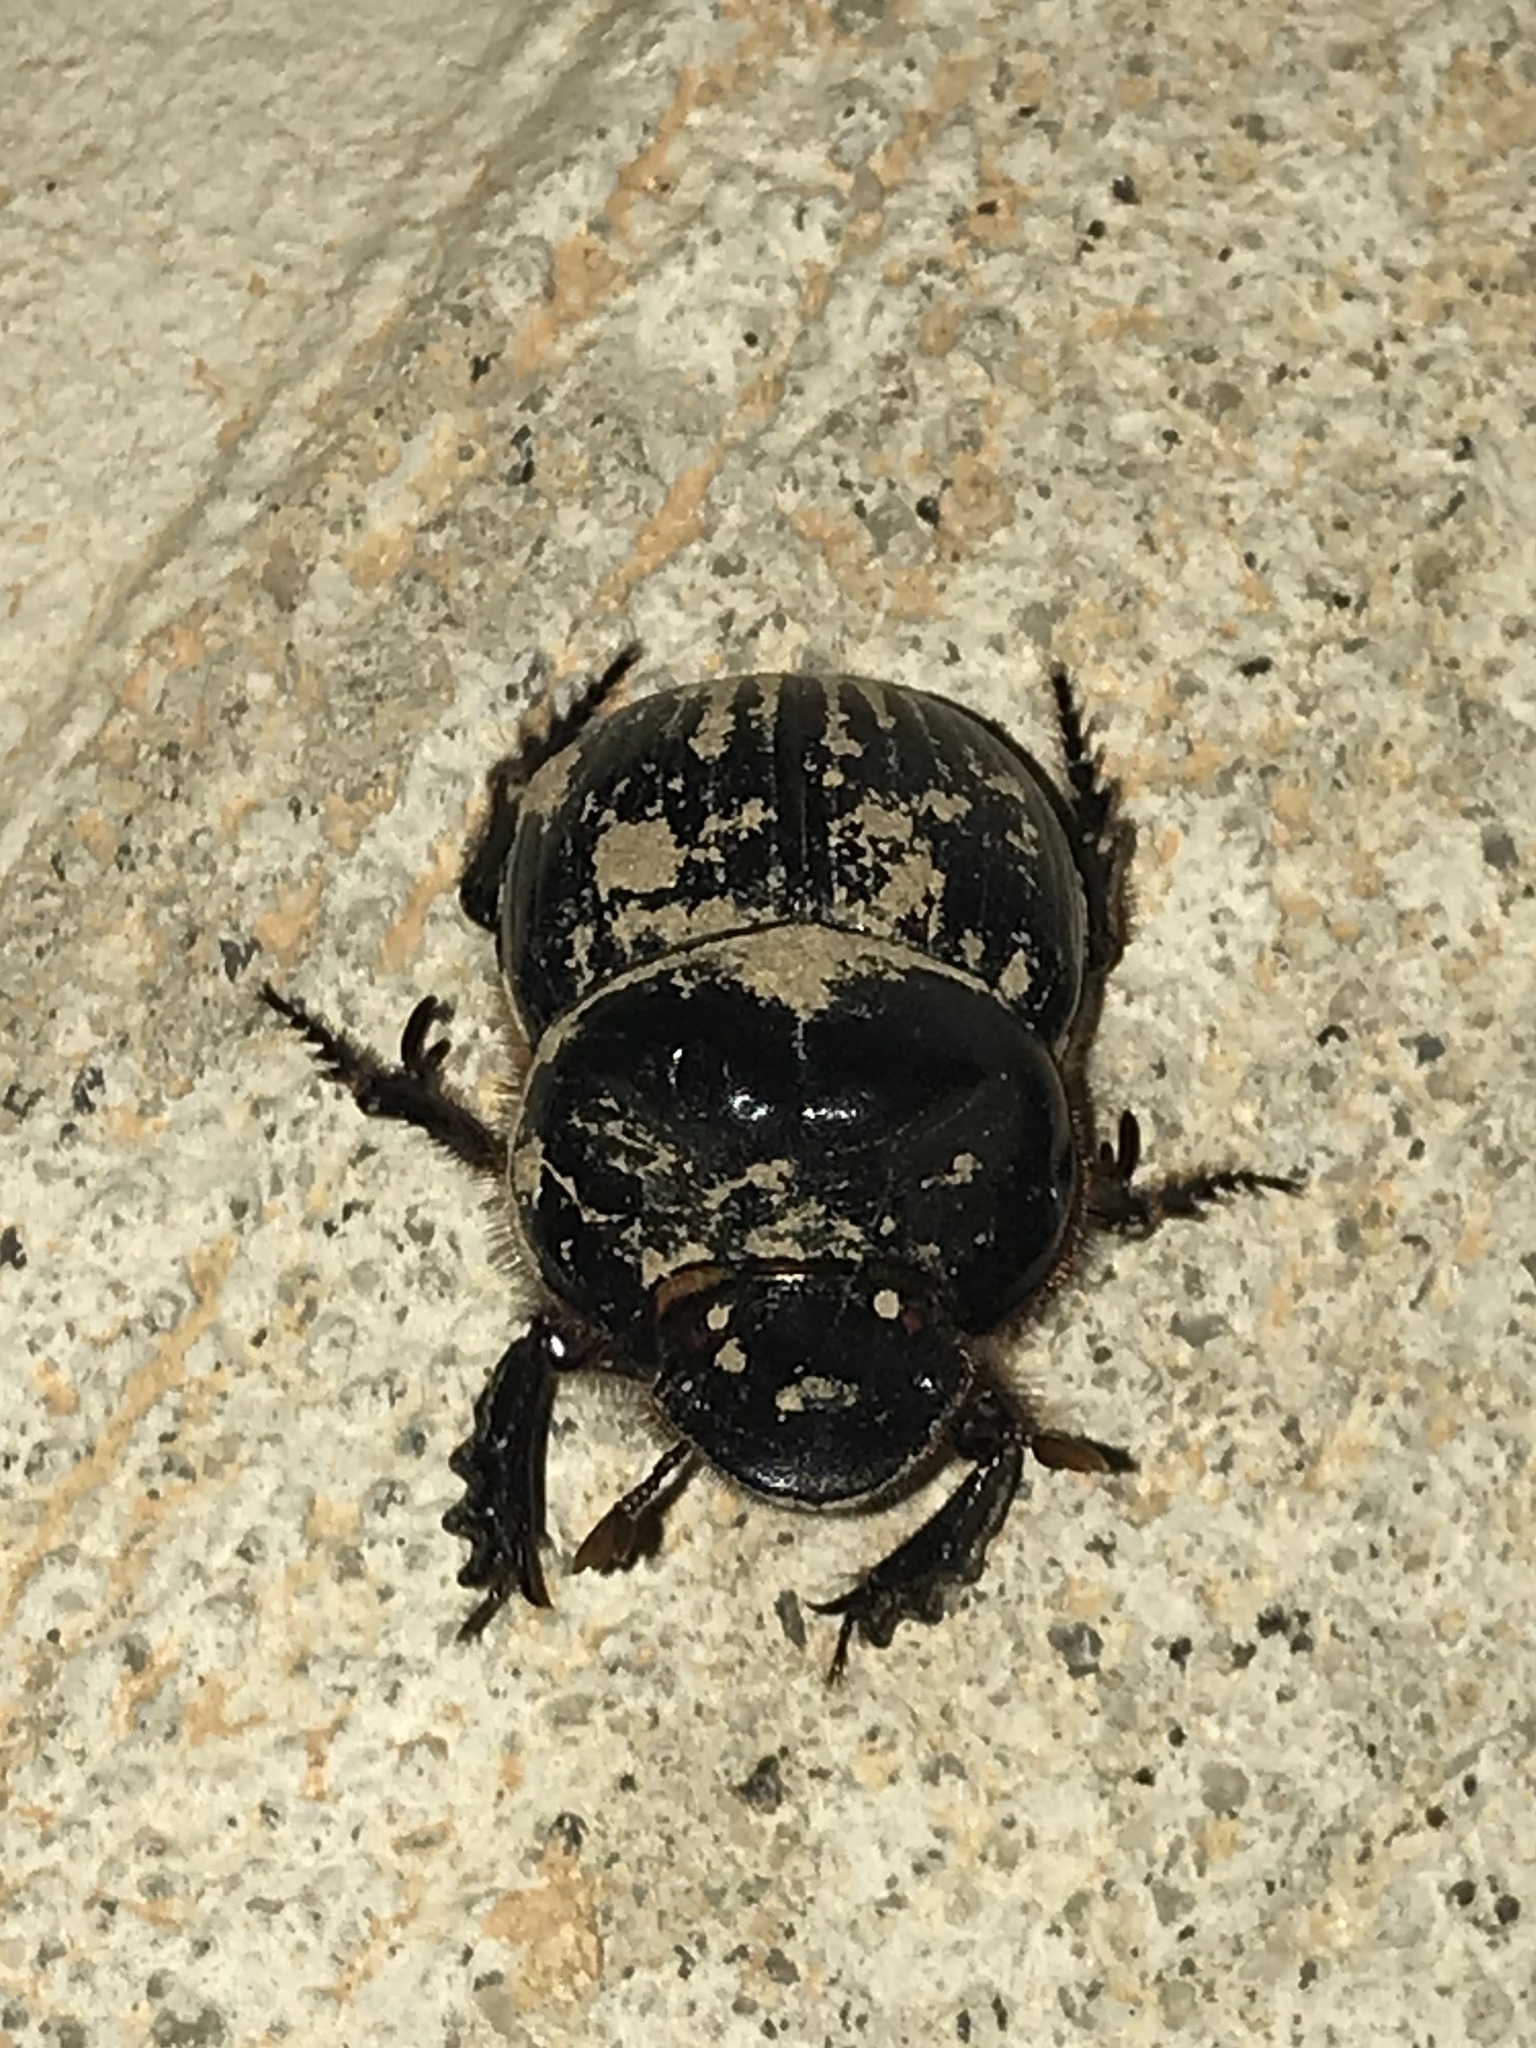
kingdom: Animalia
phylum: Arthropoda
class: Insecta
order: Coleoptera
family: Scarabaeidae
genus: Dichotomius
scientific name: Dichotomius carolinus
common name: Carolina copris
